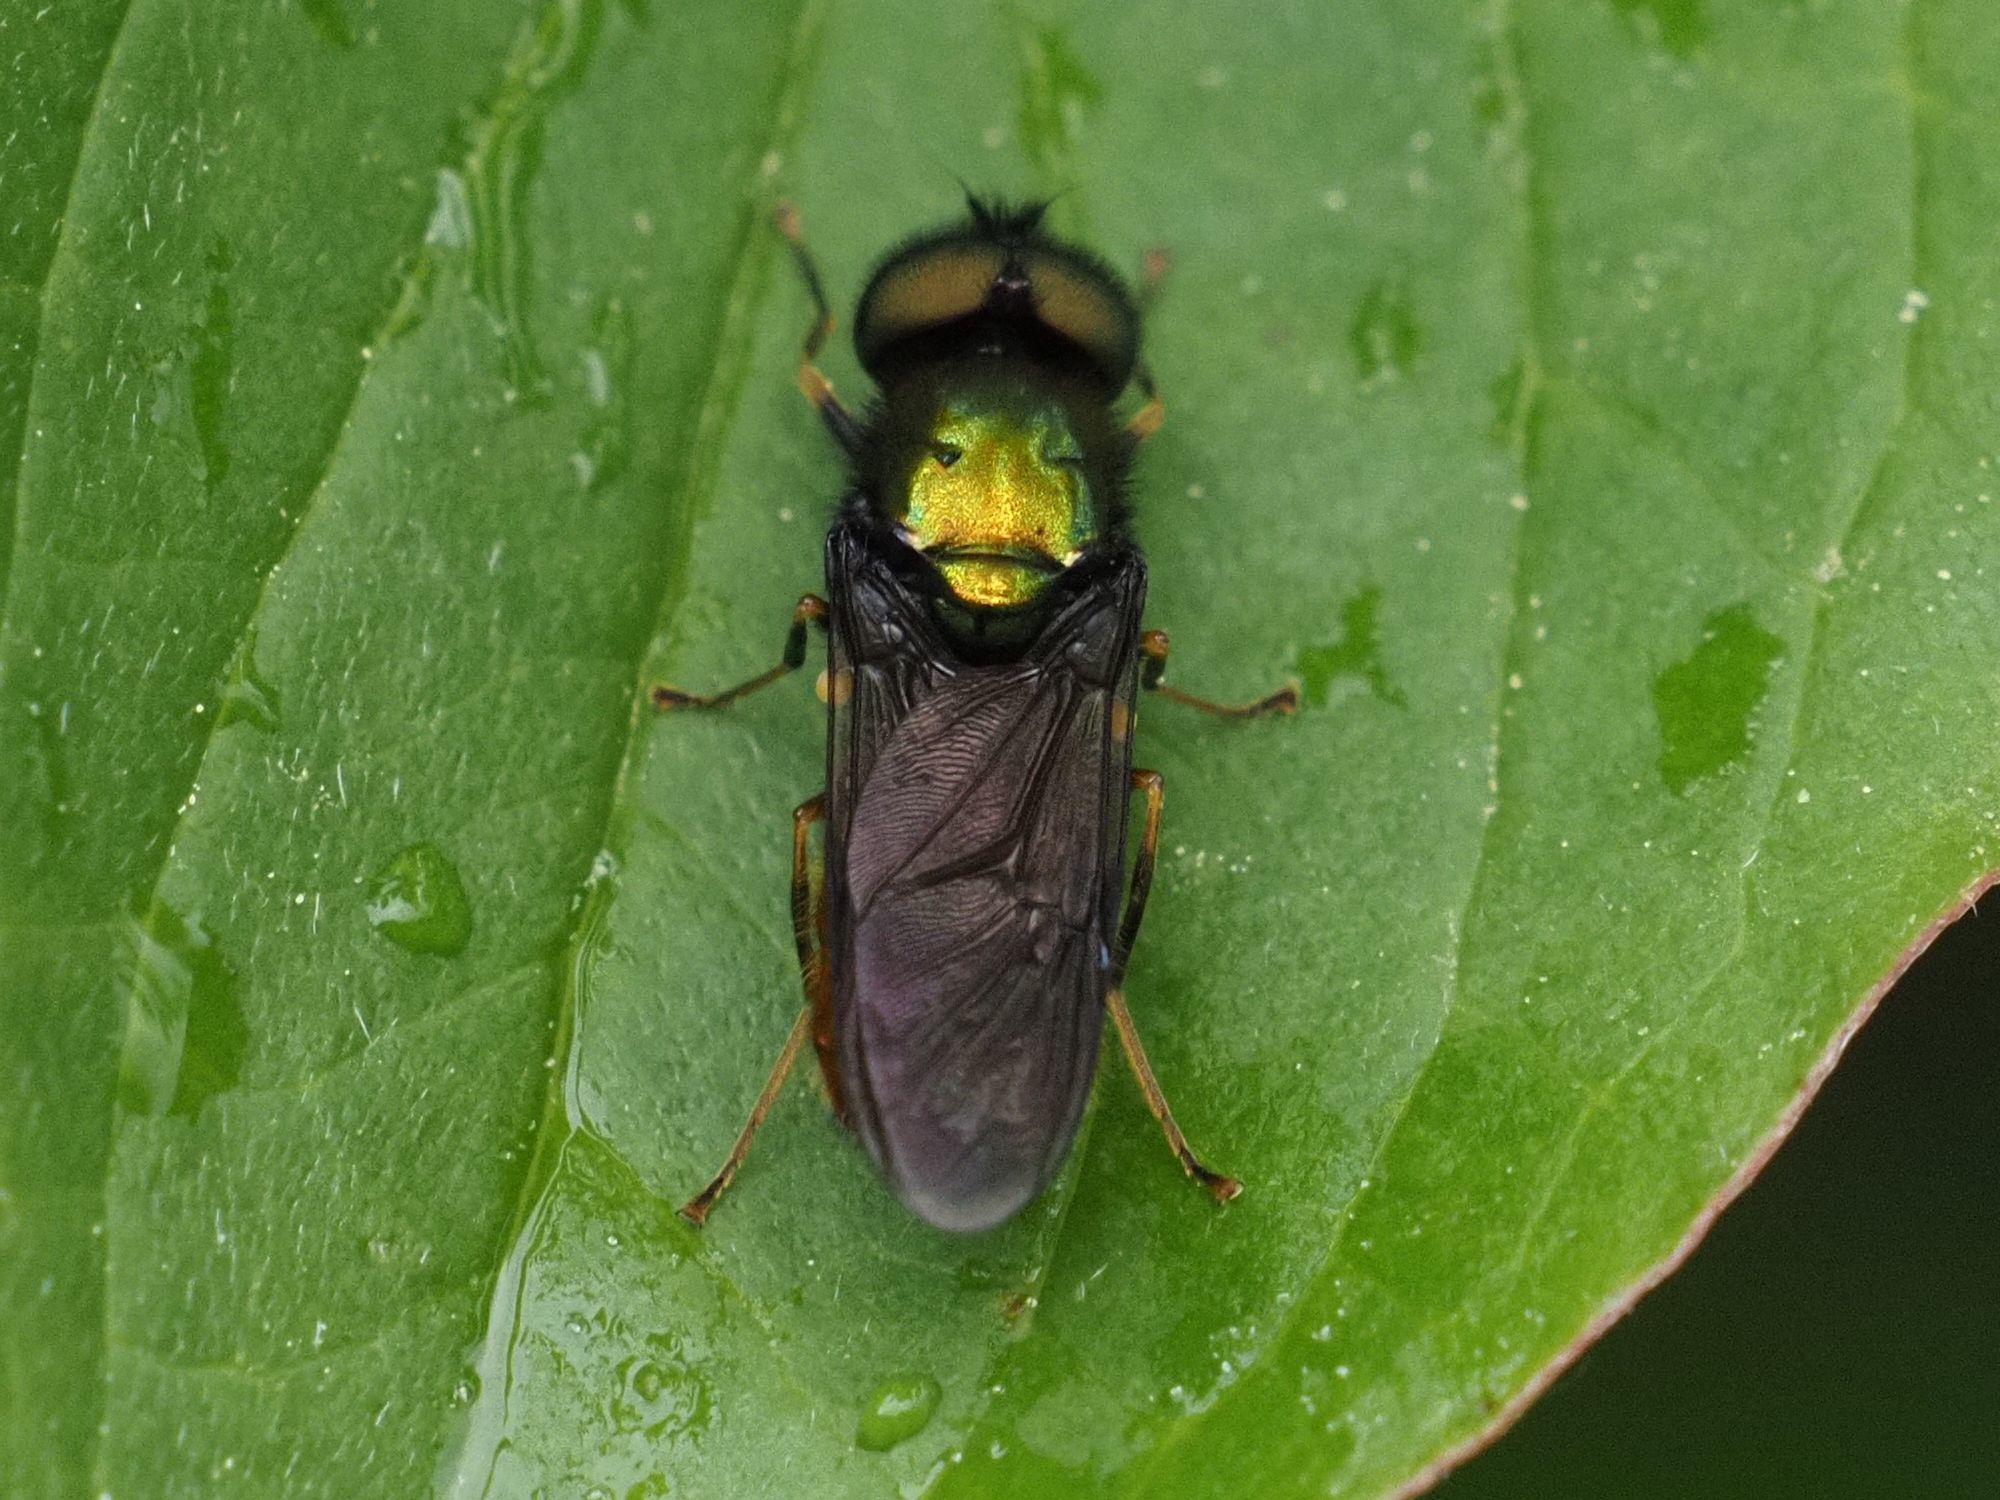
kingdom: Animalia
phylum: Arthropoda
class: Insecta
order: Diptera
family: Stratiomyidae
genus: Chloromyia
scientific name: Chloromyia speciosa
